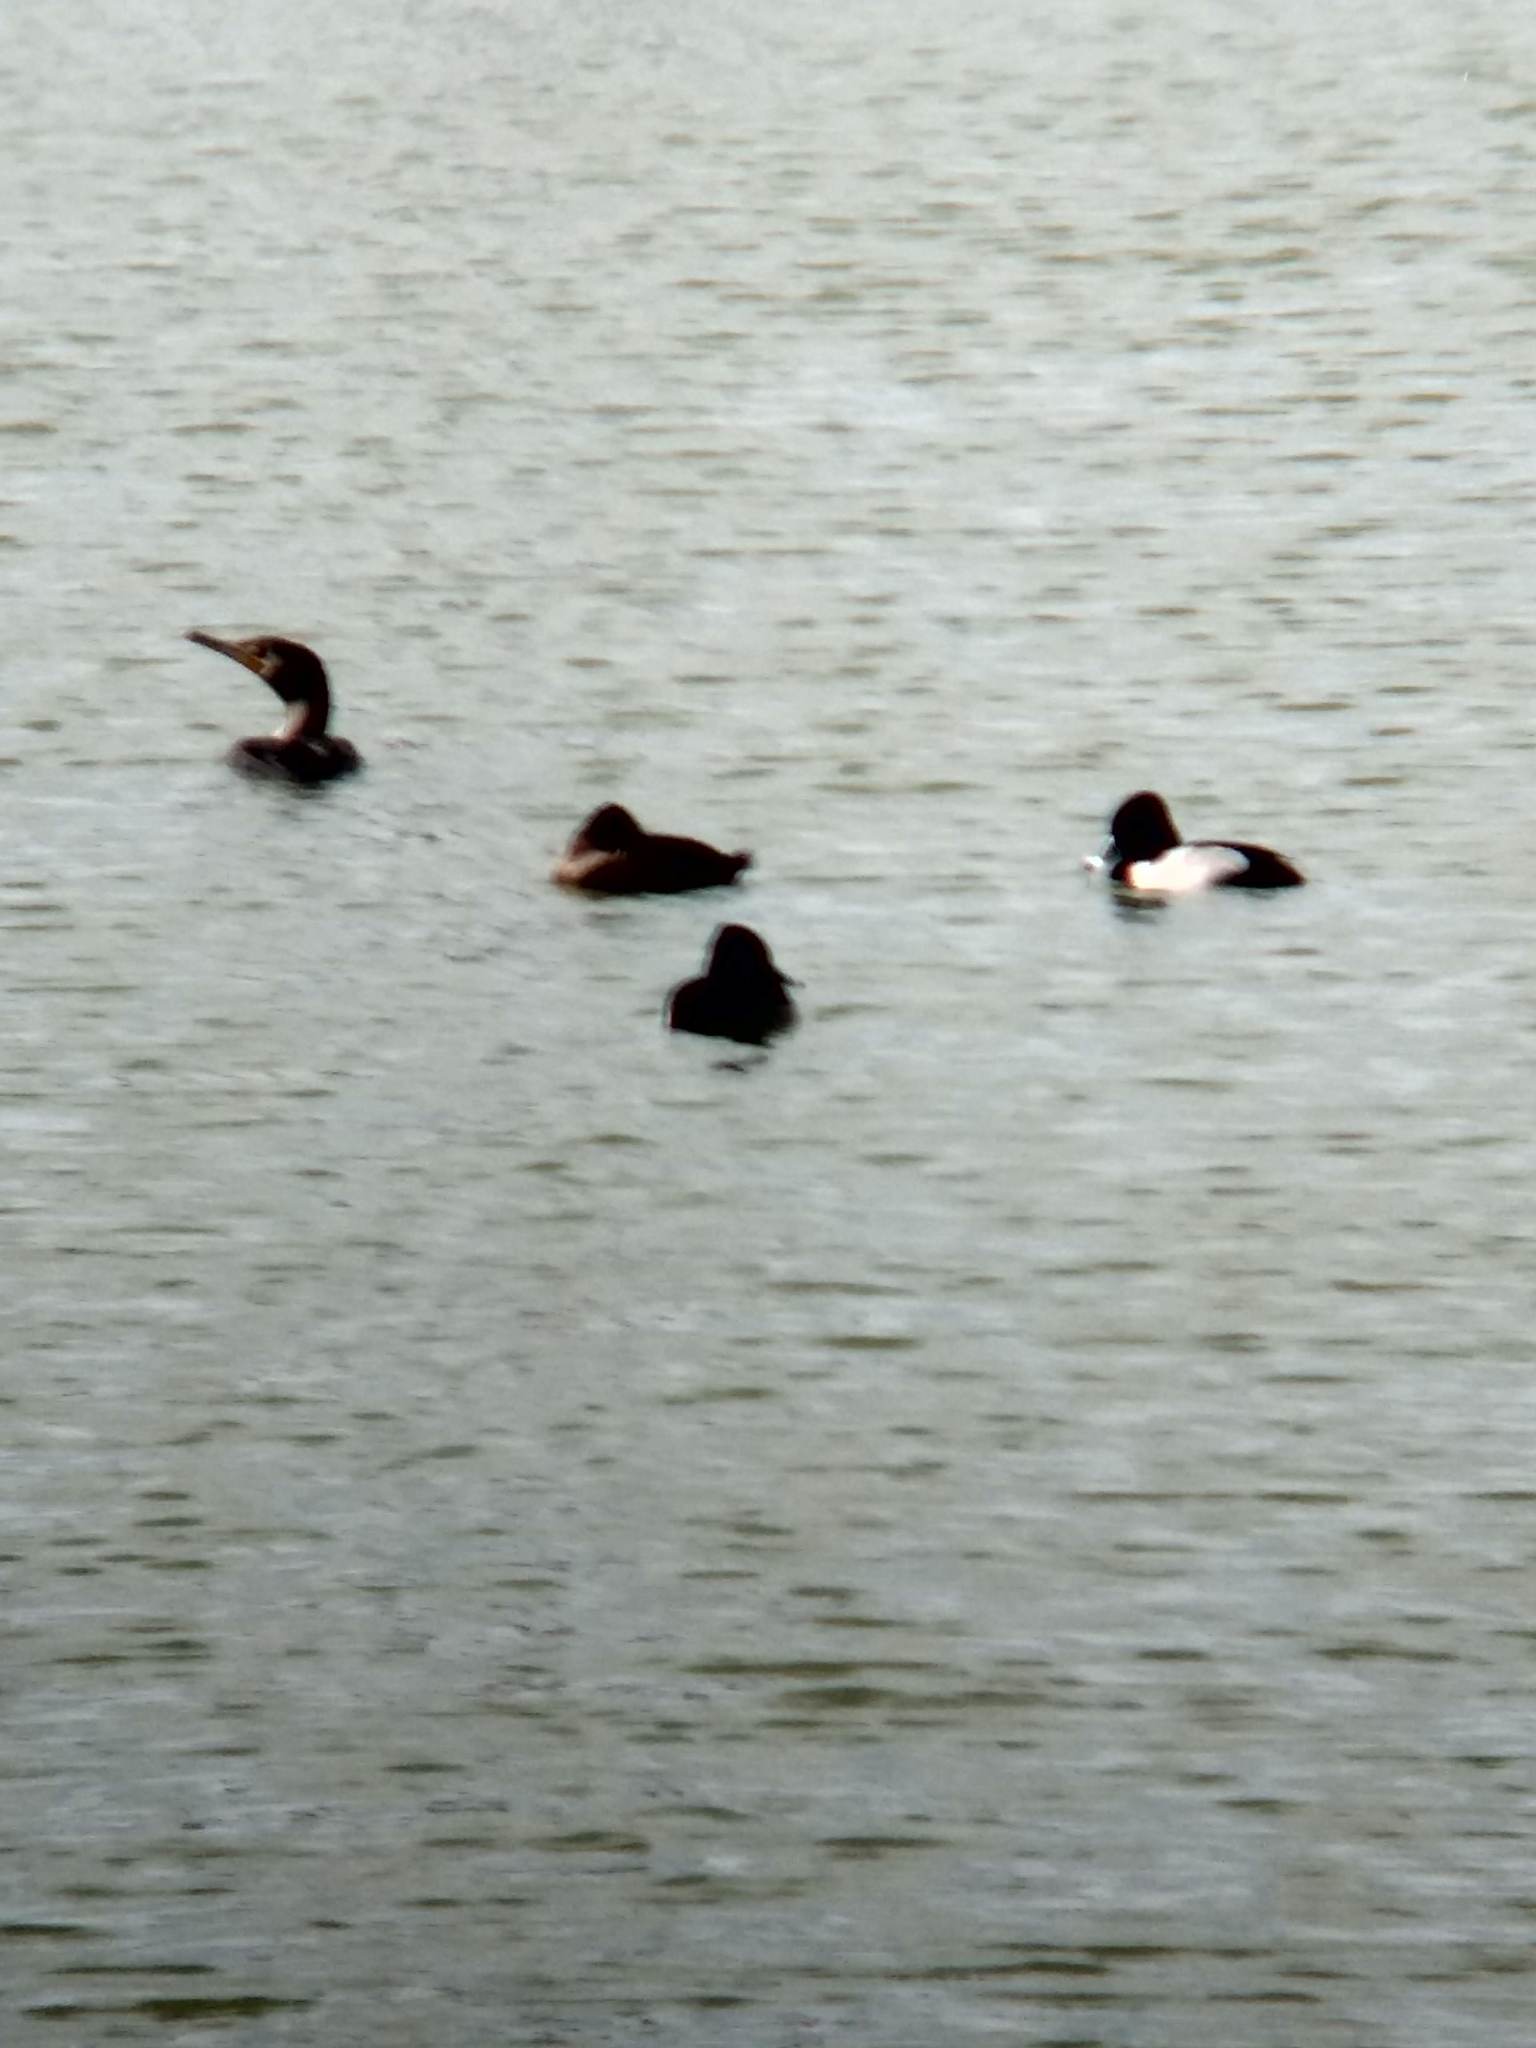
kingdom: Animalia
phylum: Chordata
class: Aves
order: Suliformes
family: Phalacrocoracidae
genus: Phalacrocorax
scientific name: Phalacrocorax auritus
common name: Double-crested cormorant
